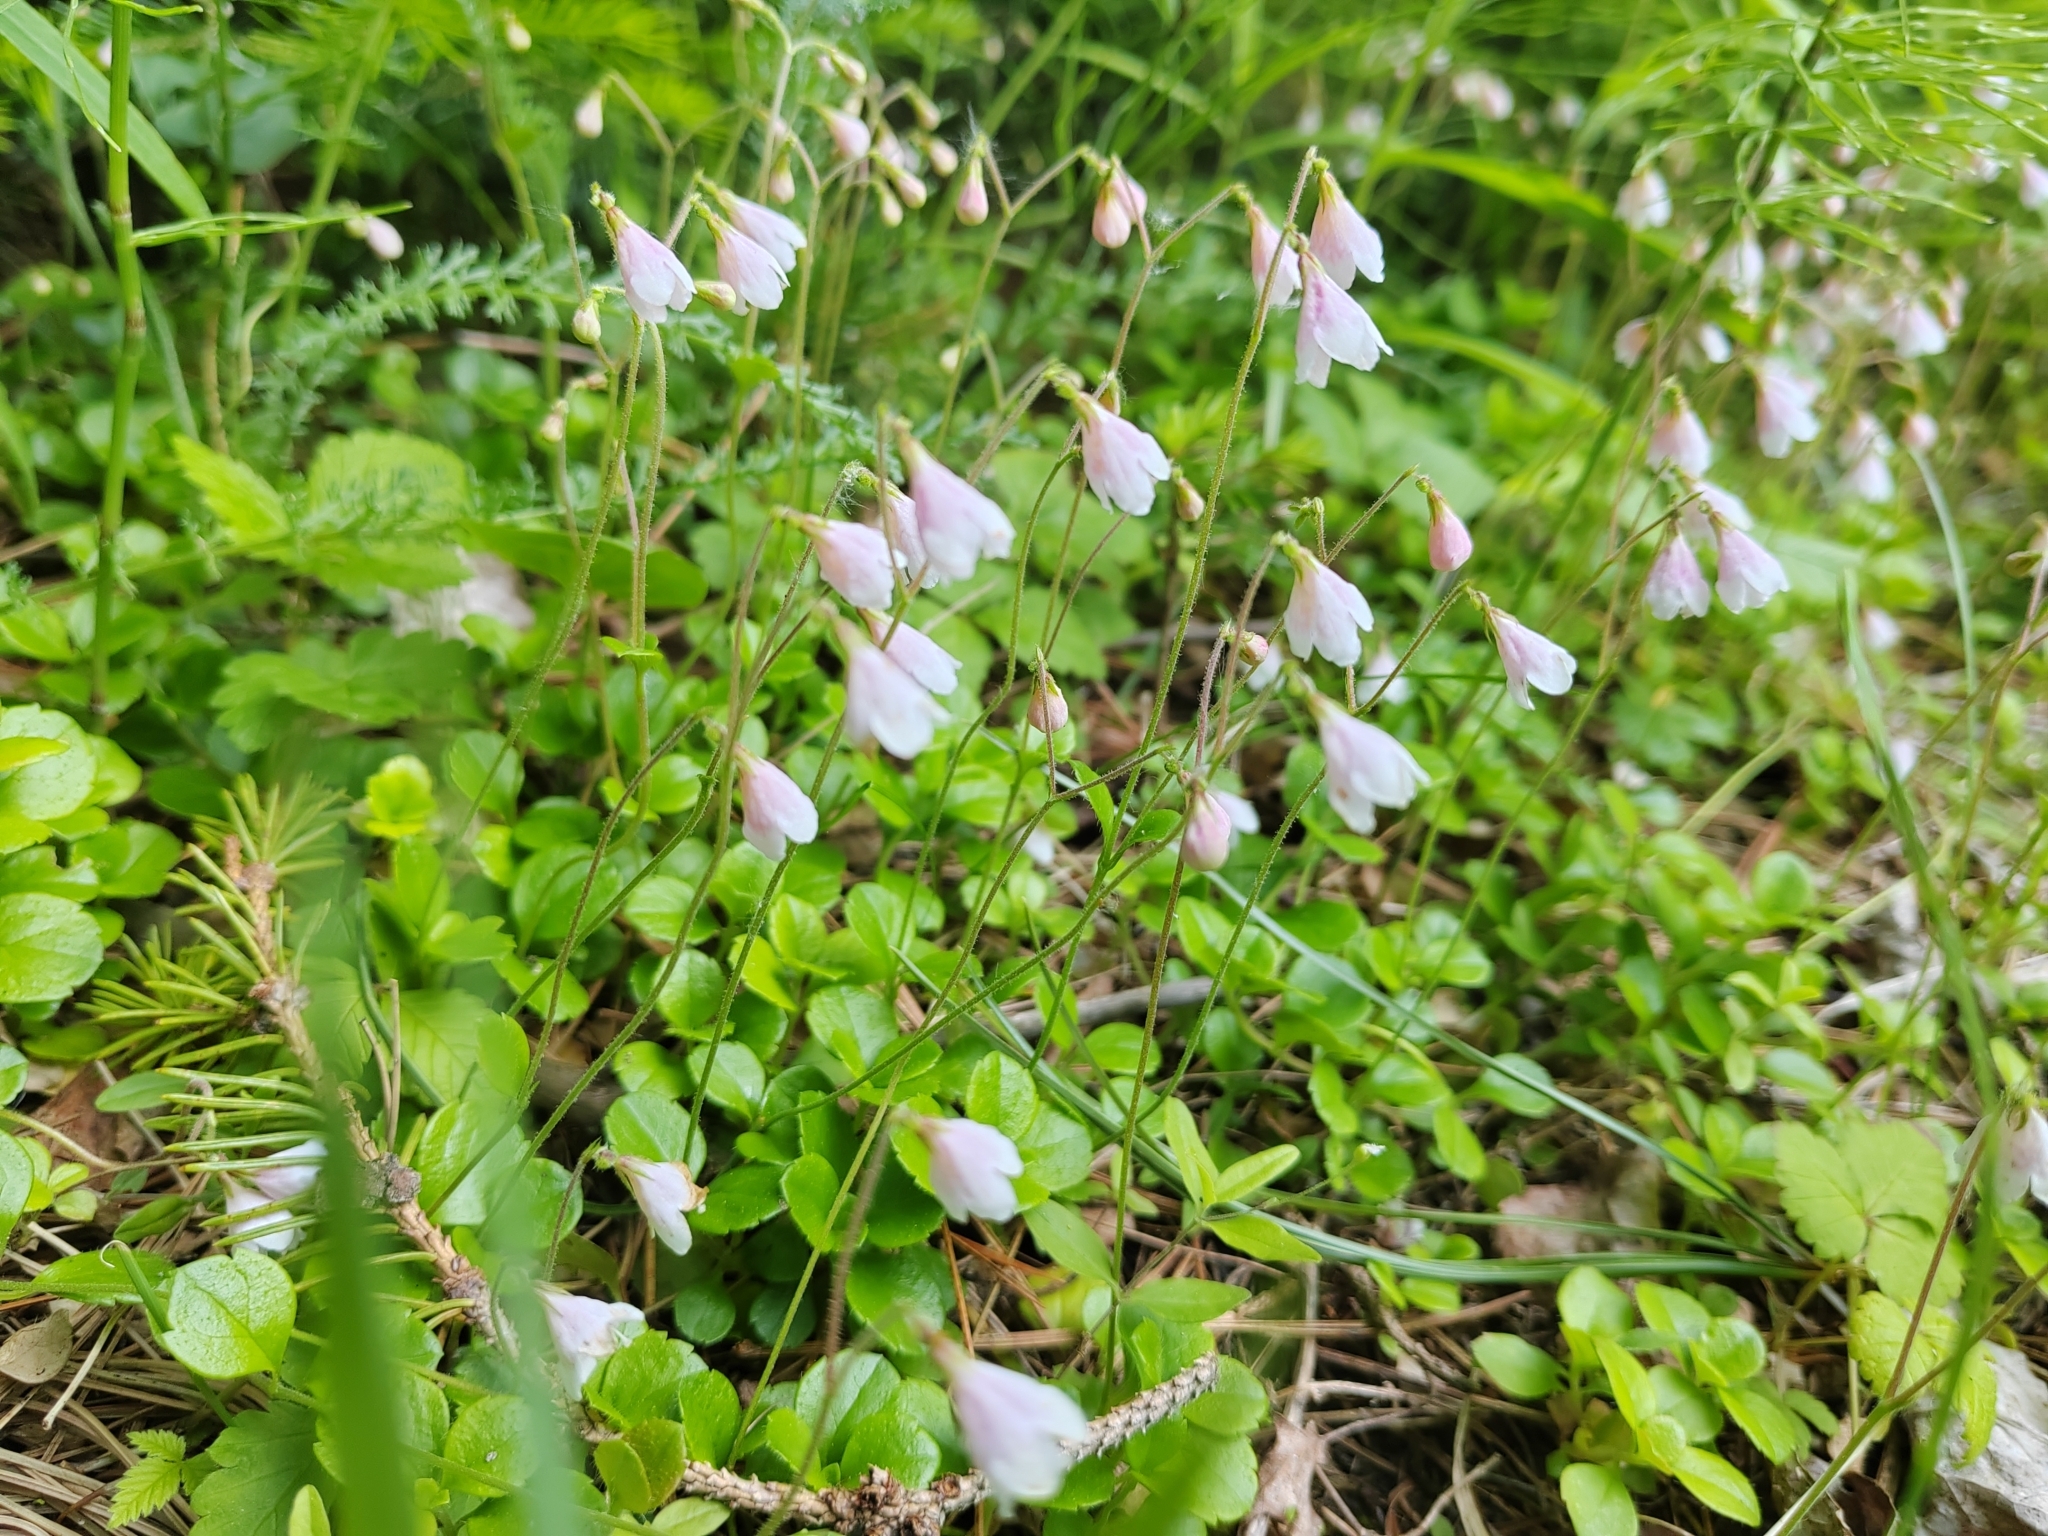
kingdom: Plantae
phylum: Tracheophyta
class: Magnoliopsida
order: Dipsacales
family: Caprifoliaceae
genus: Linnaea
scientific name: Linnaea borealis
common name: Twinflower
